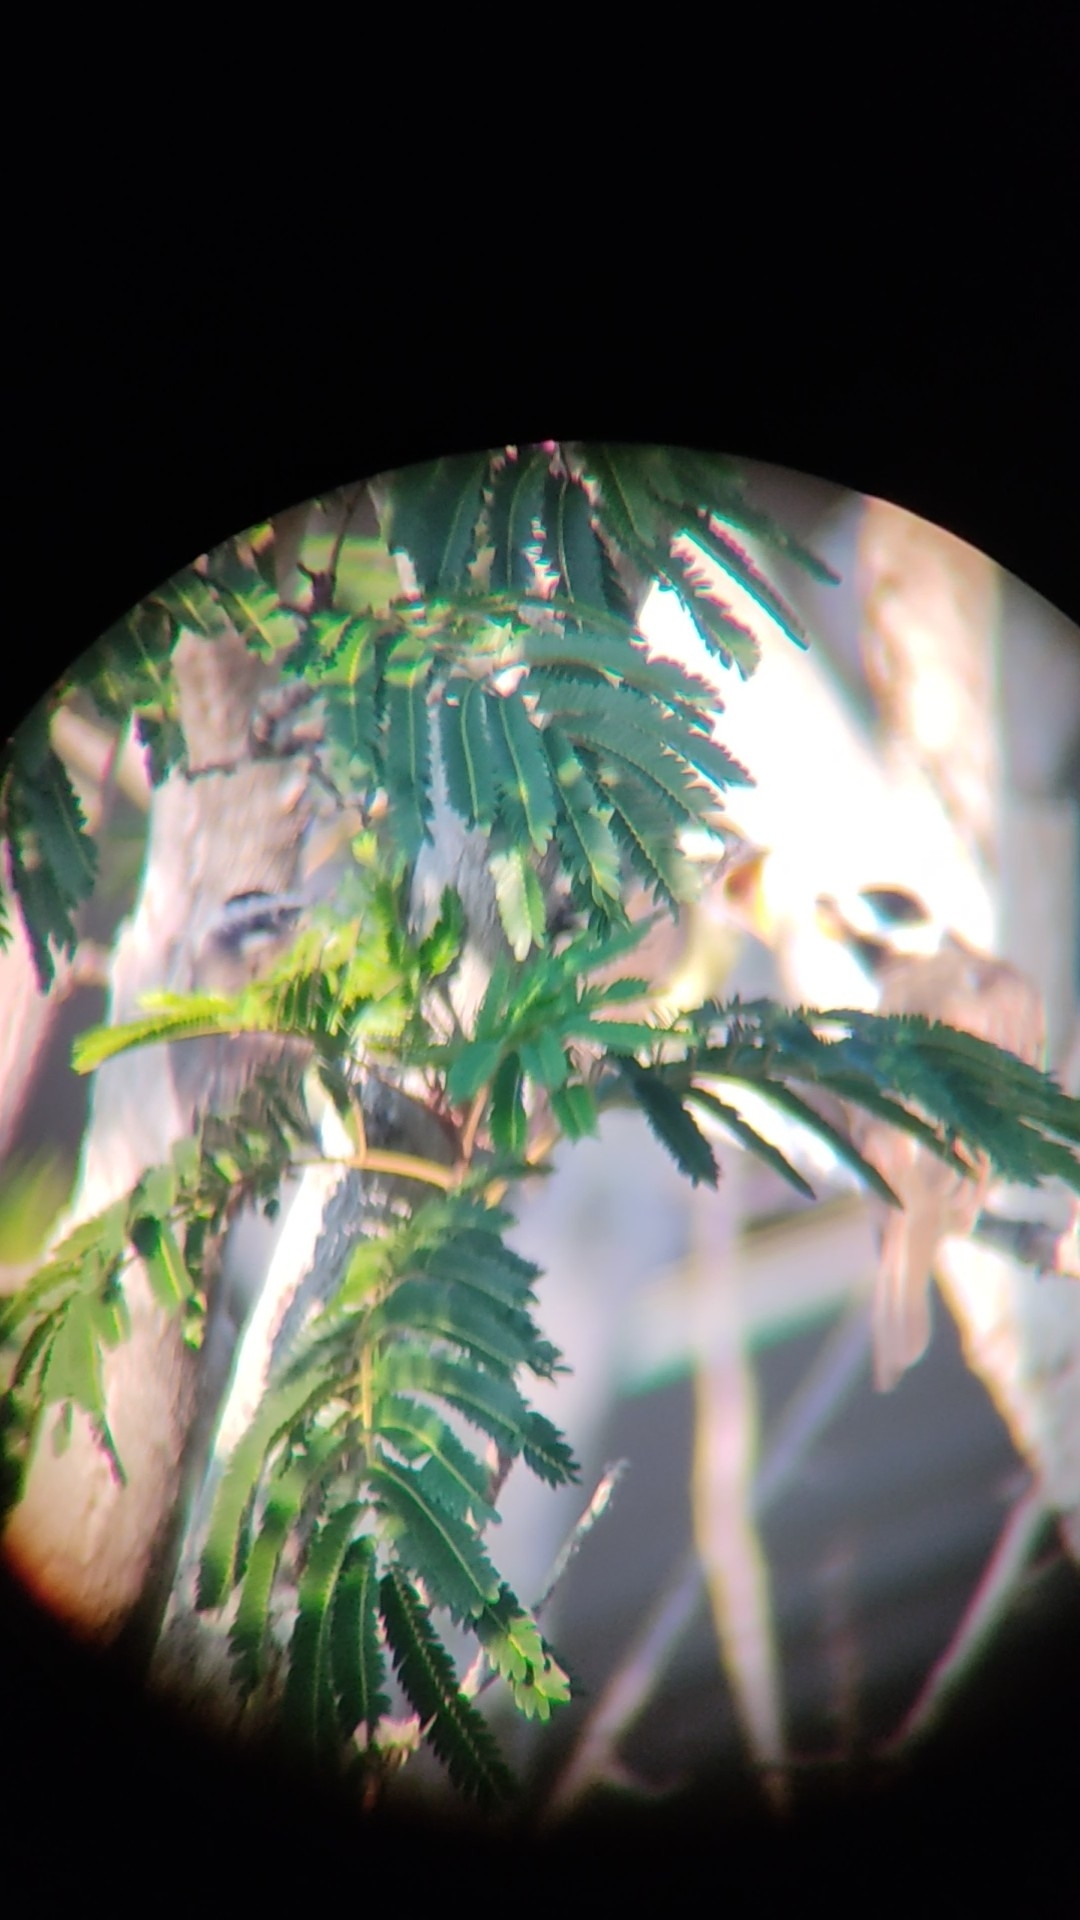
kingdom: Animalia
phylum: Chordata
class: Aves
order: Passeriformes
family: Tyrannidae
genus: Pitangus
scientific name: Pitangus sulphuratus
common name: Great kiskadee
